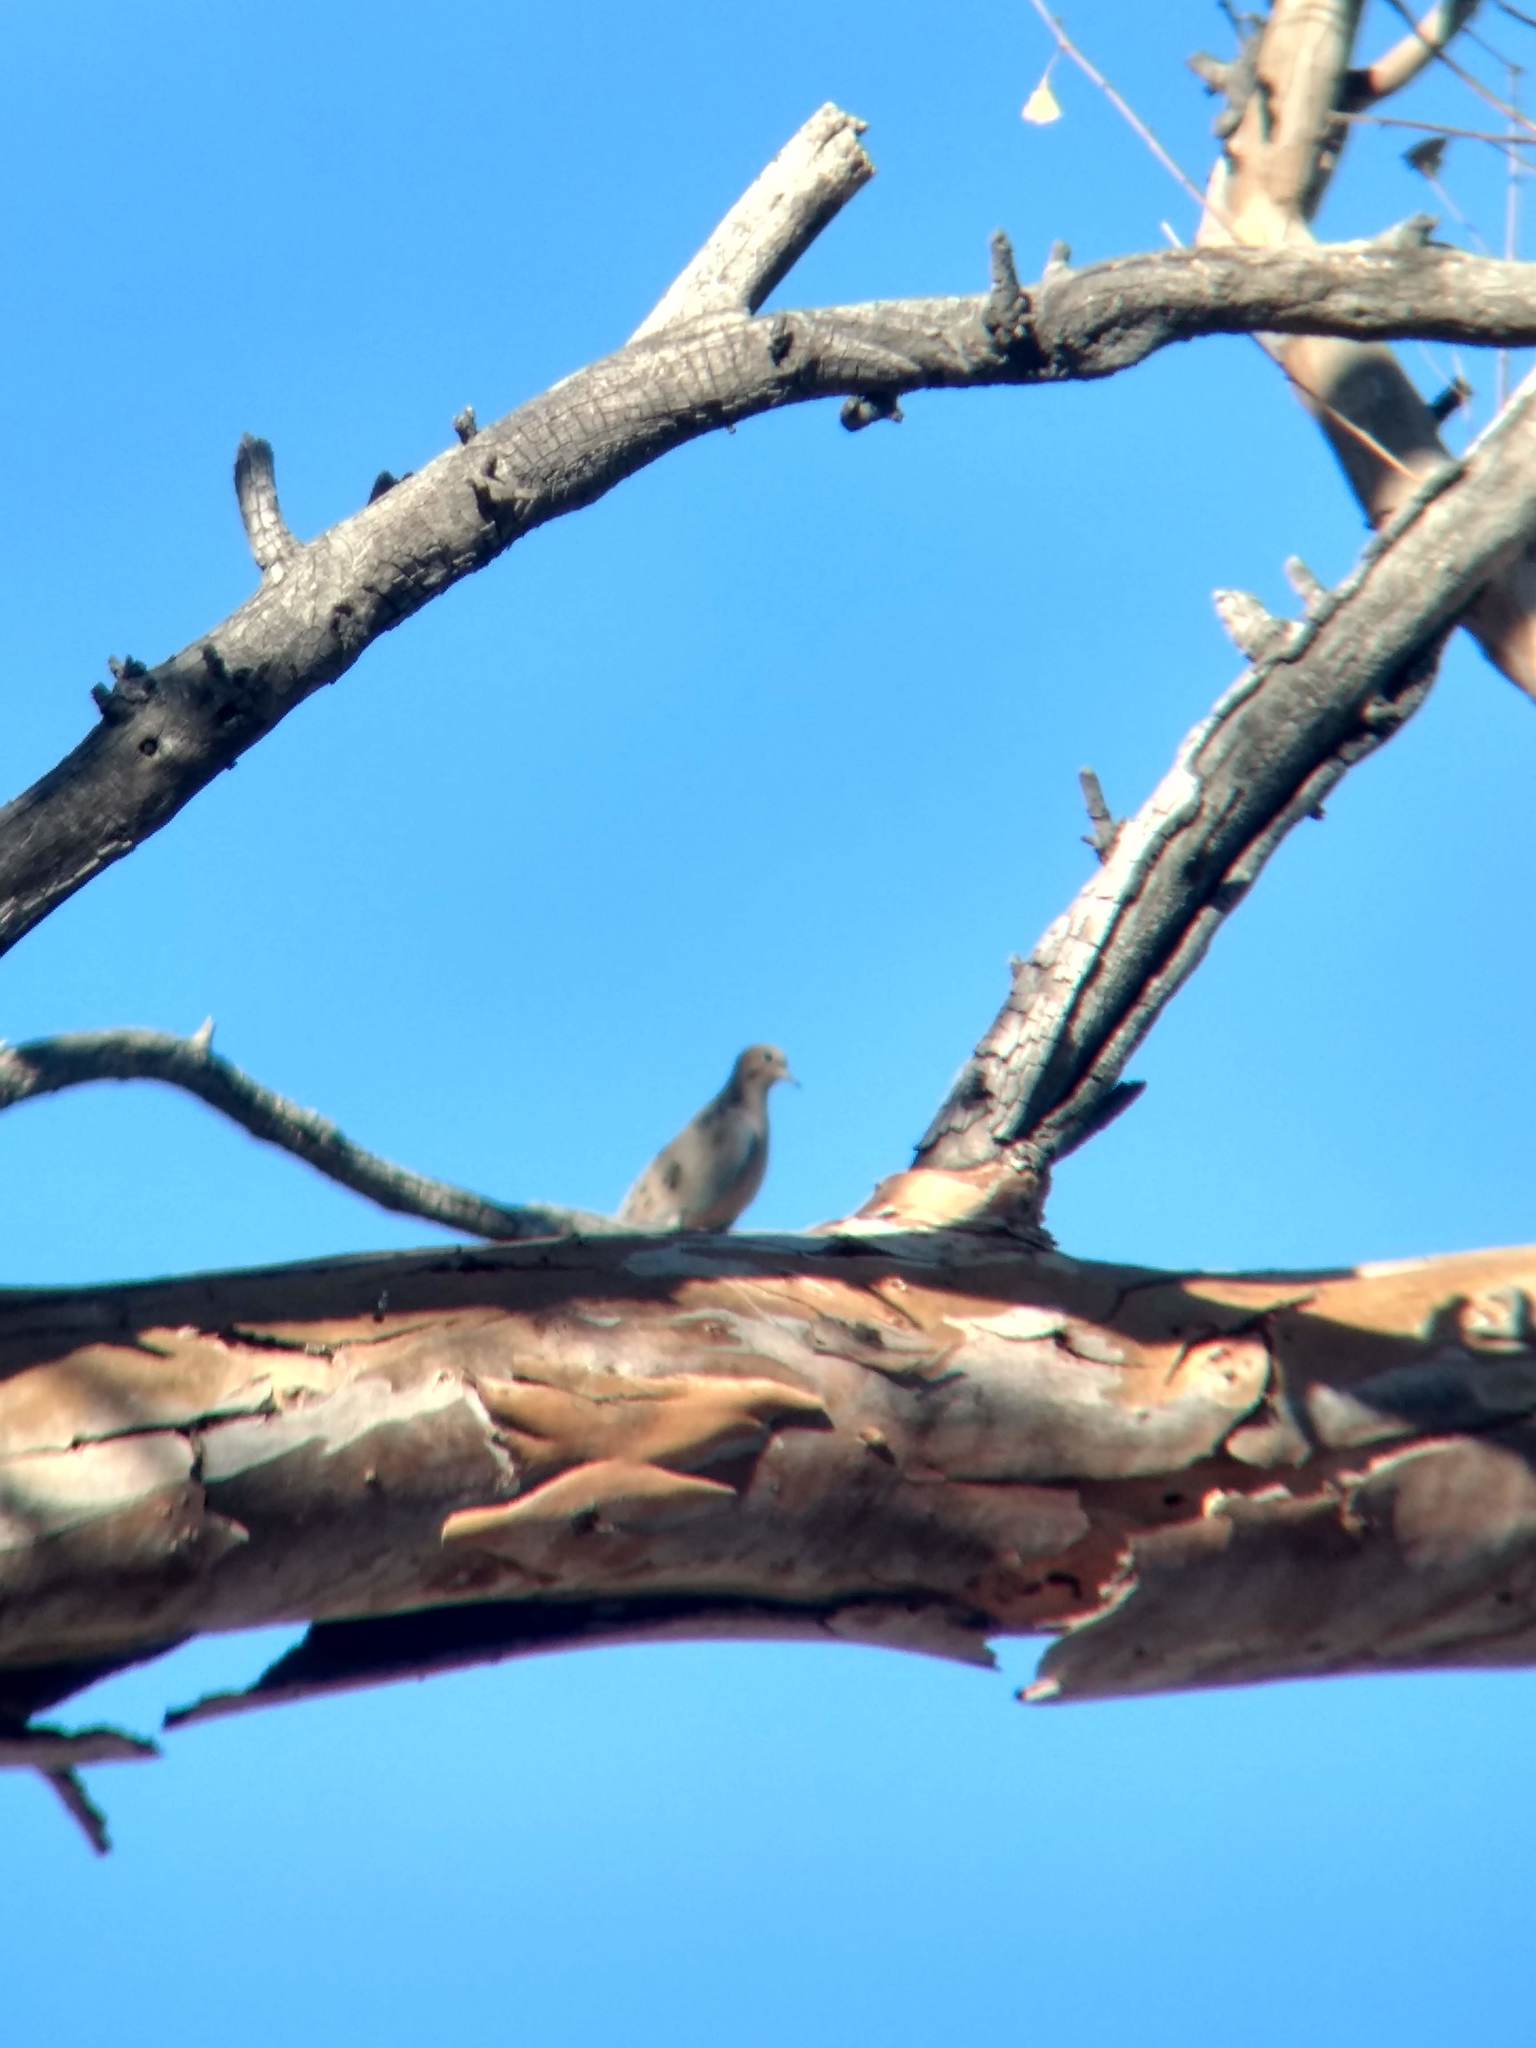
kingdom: Animalia
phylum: Chordata
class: Aves
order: Columbiformes
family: Columbidae
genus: Zenaida
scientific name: Zenaida macroura
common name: Mourning dove
